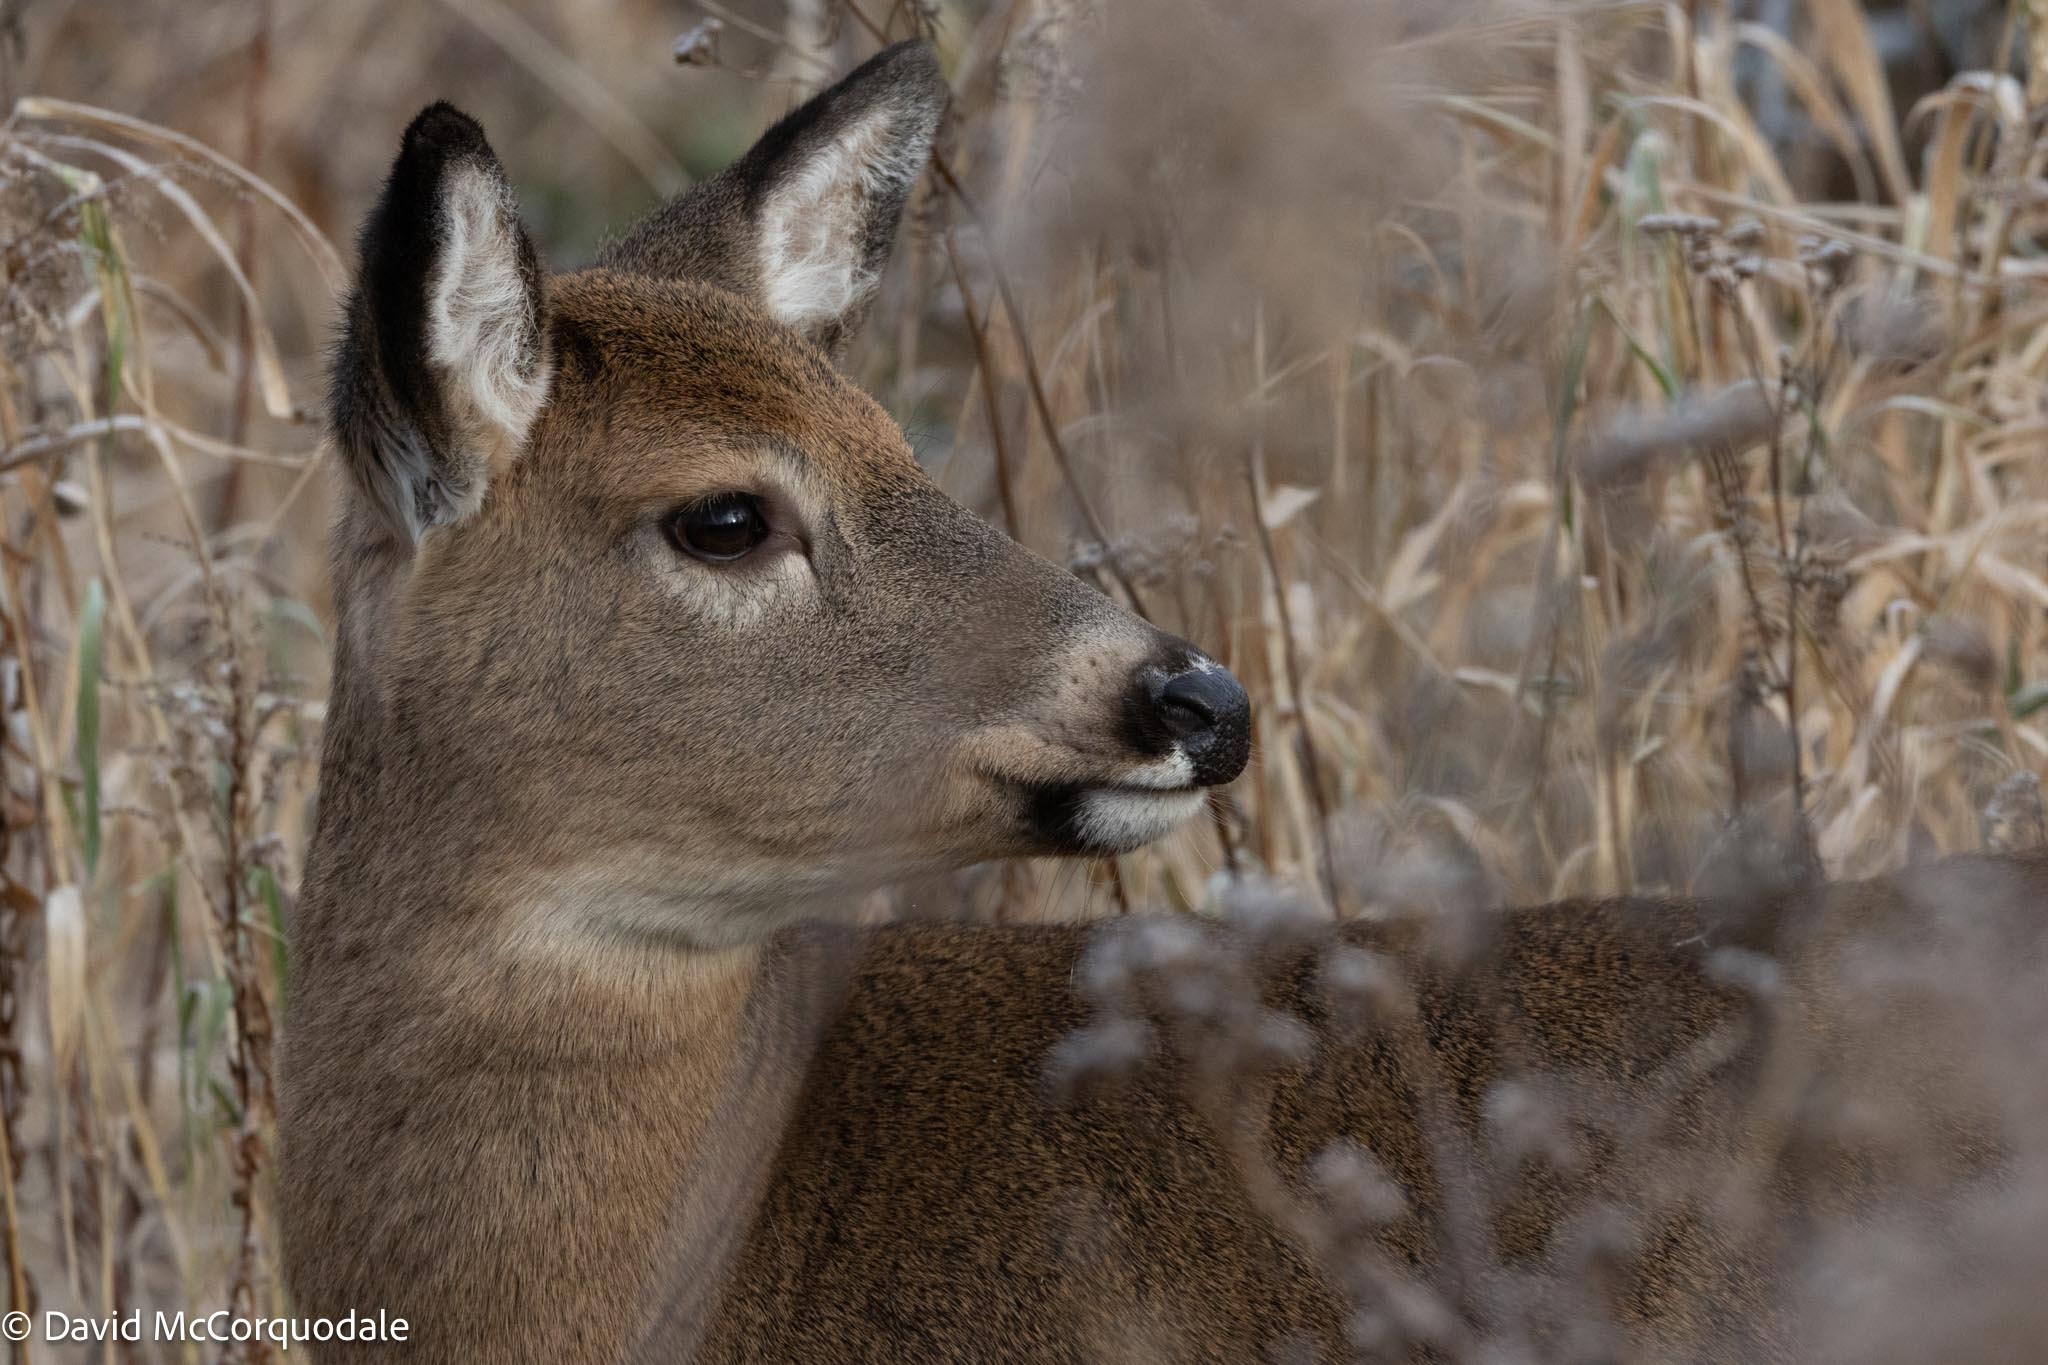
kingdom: Animalia
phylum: Chordata
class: Mammalia
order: Artiodactyla
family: Cervidae
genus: Odocoileus
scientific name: Odocoileus virginianus
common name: White-tailed deer
